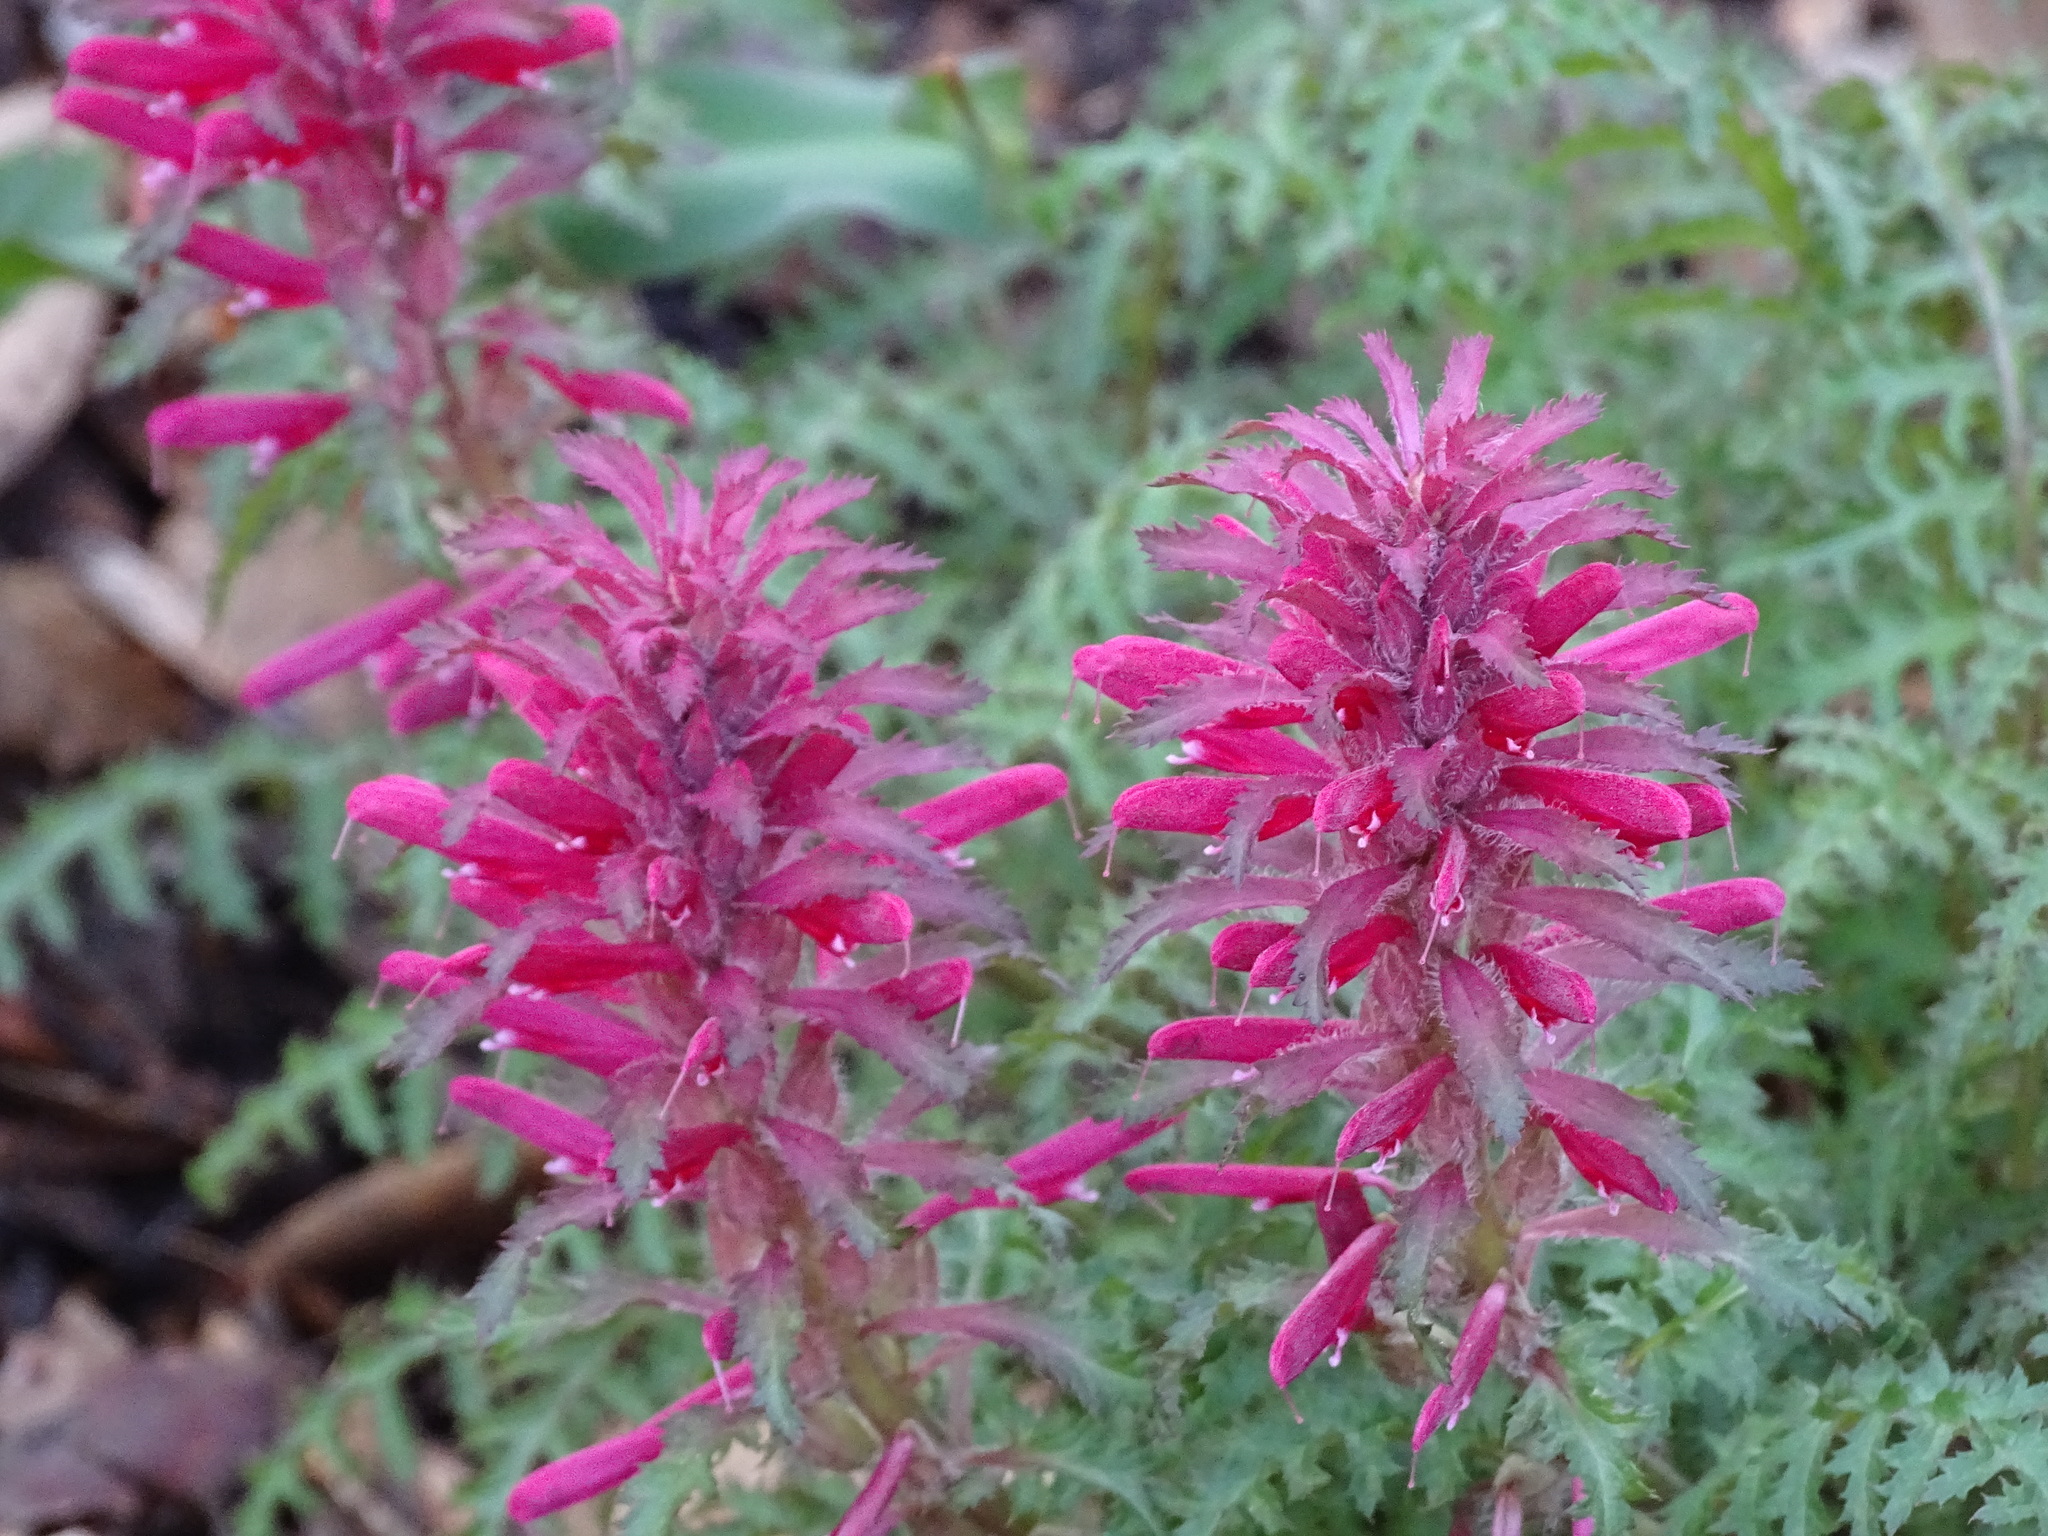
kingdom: Plantae
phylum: Tracheophyta
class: Magnoliopsida
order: Lamiales
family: Orobanchaceae
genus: Pedicularis
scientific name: Pedicularis densiflora
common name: Indian warrior
